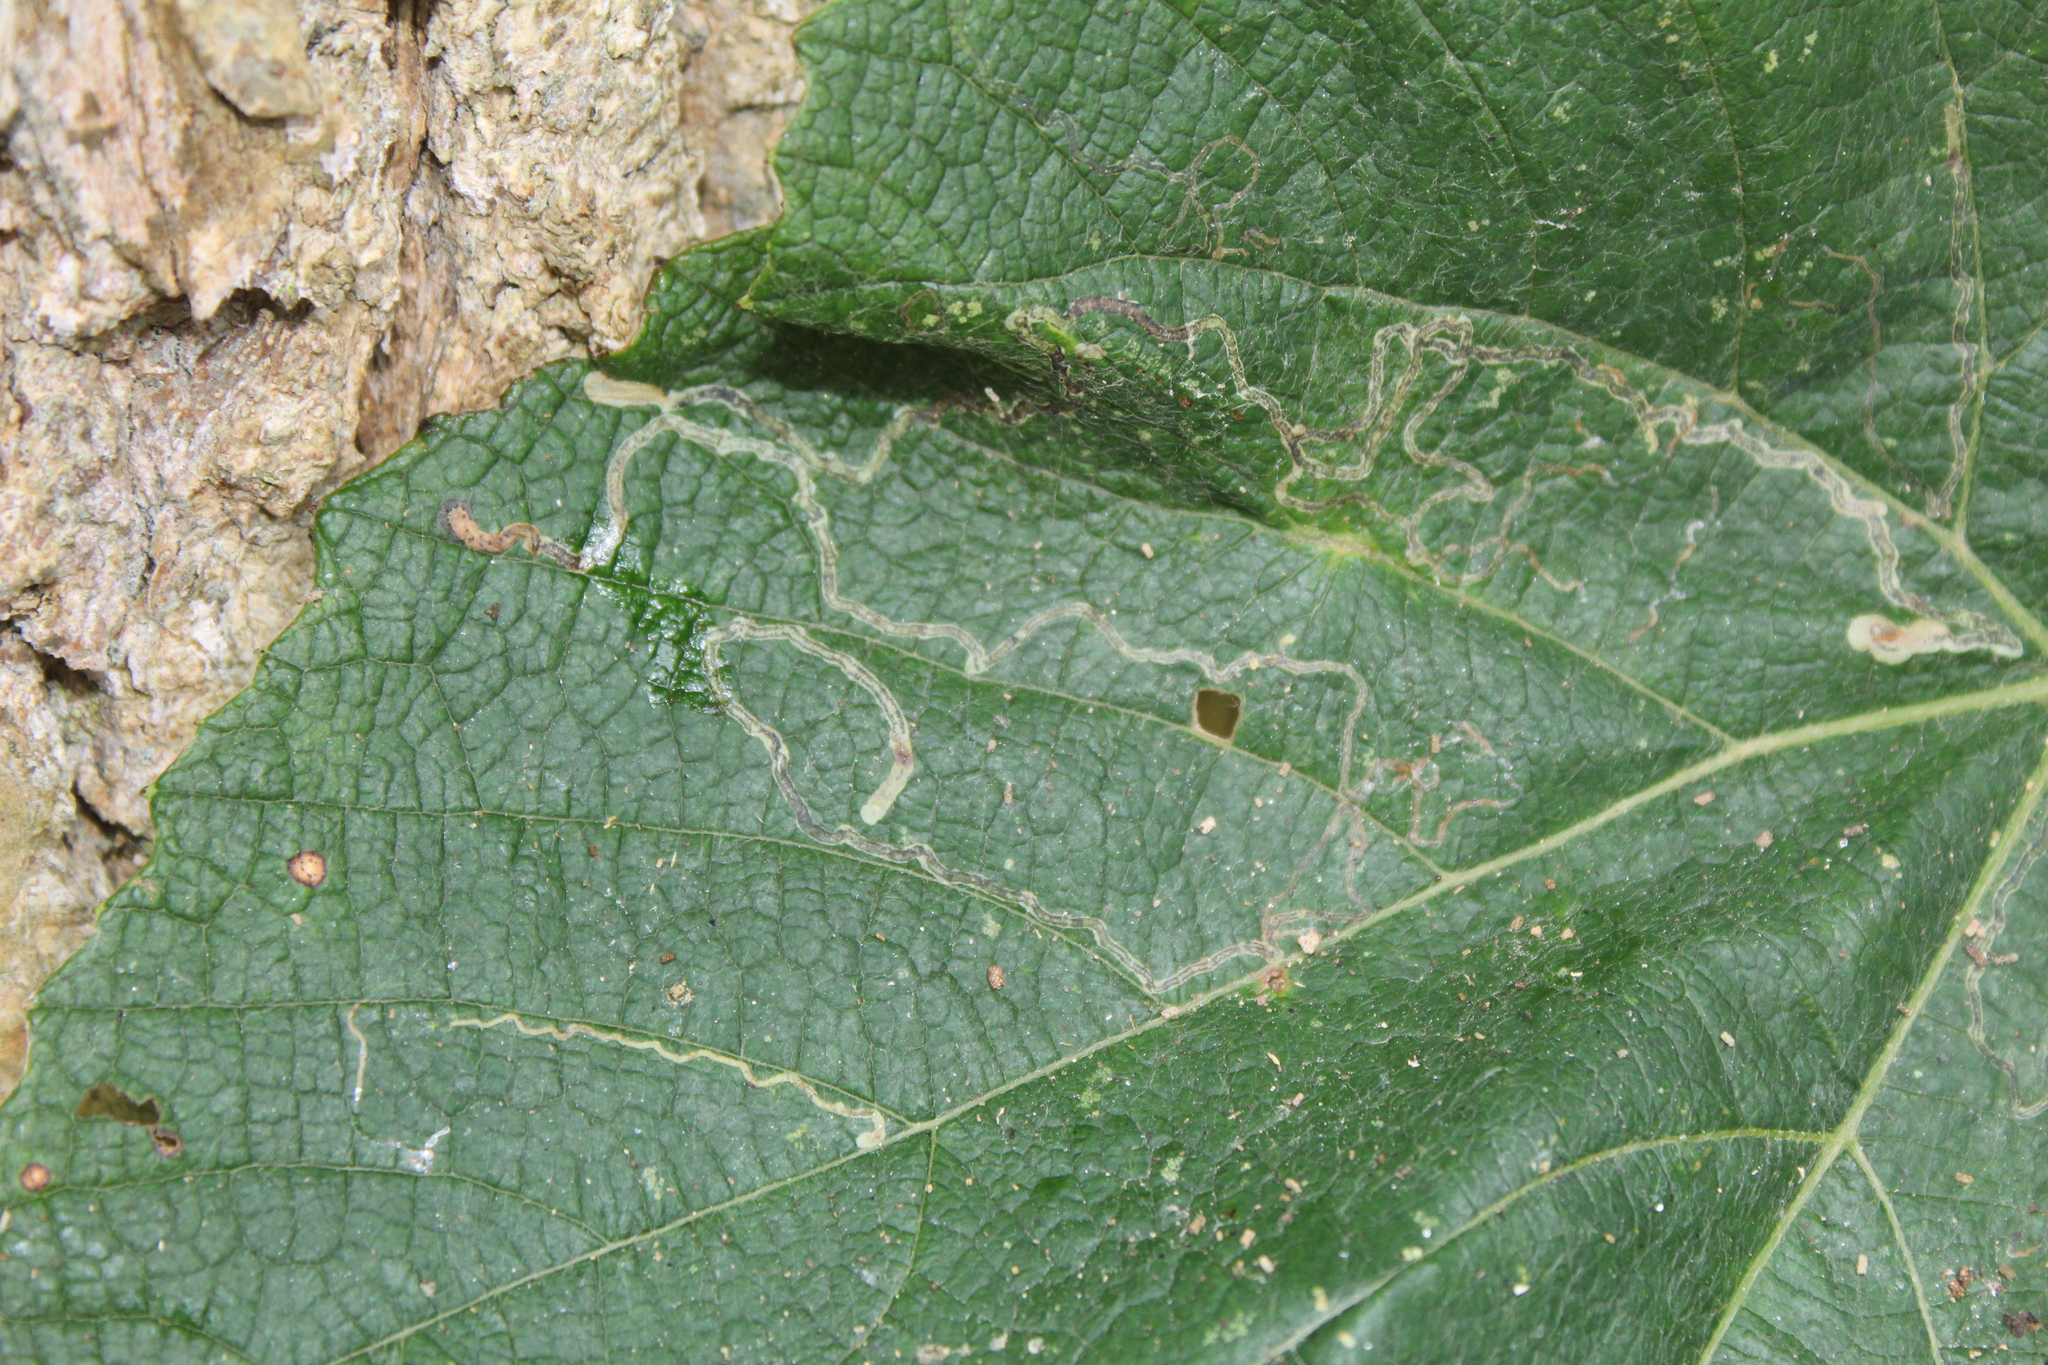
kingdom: Animalia
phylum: Arthropoda
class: Insecta
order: Lepidoptera
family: Gracillariidae
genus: Phyllocnistis
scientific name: Phyllocnistis vitifoliella
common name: Grape leaf-miner moth
